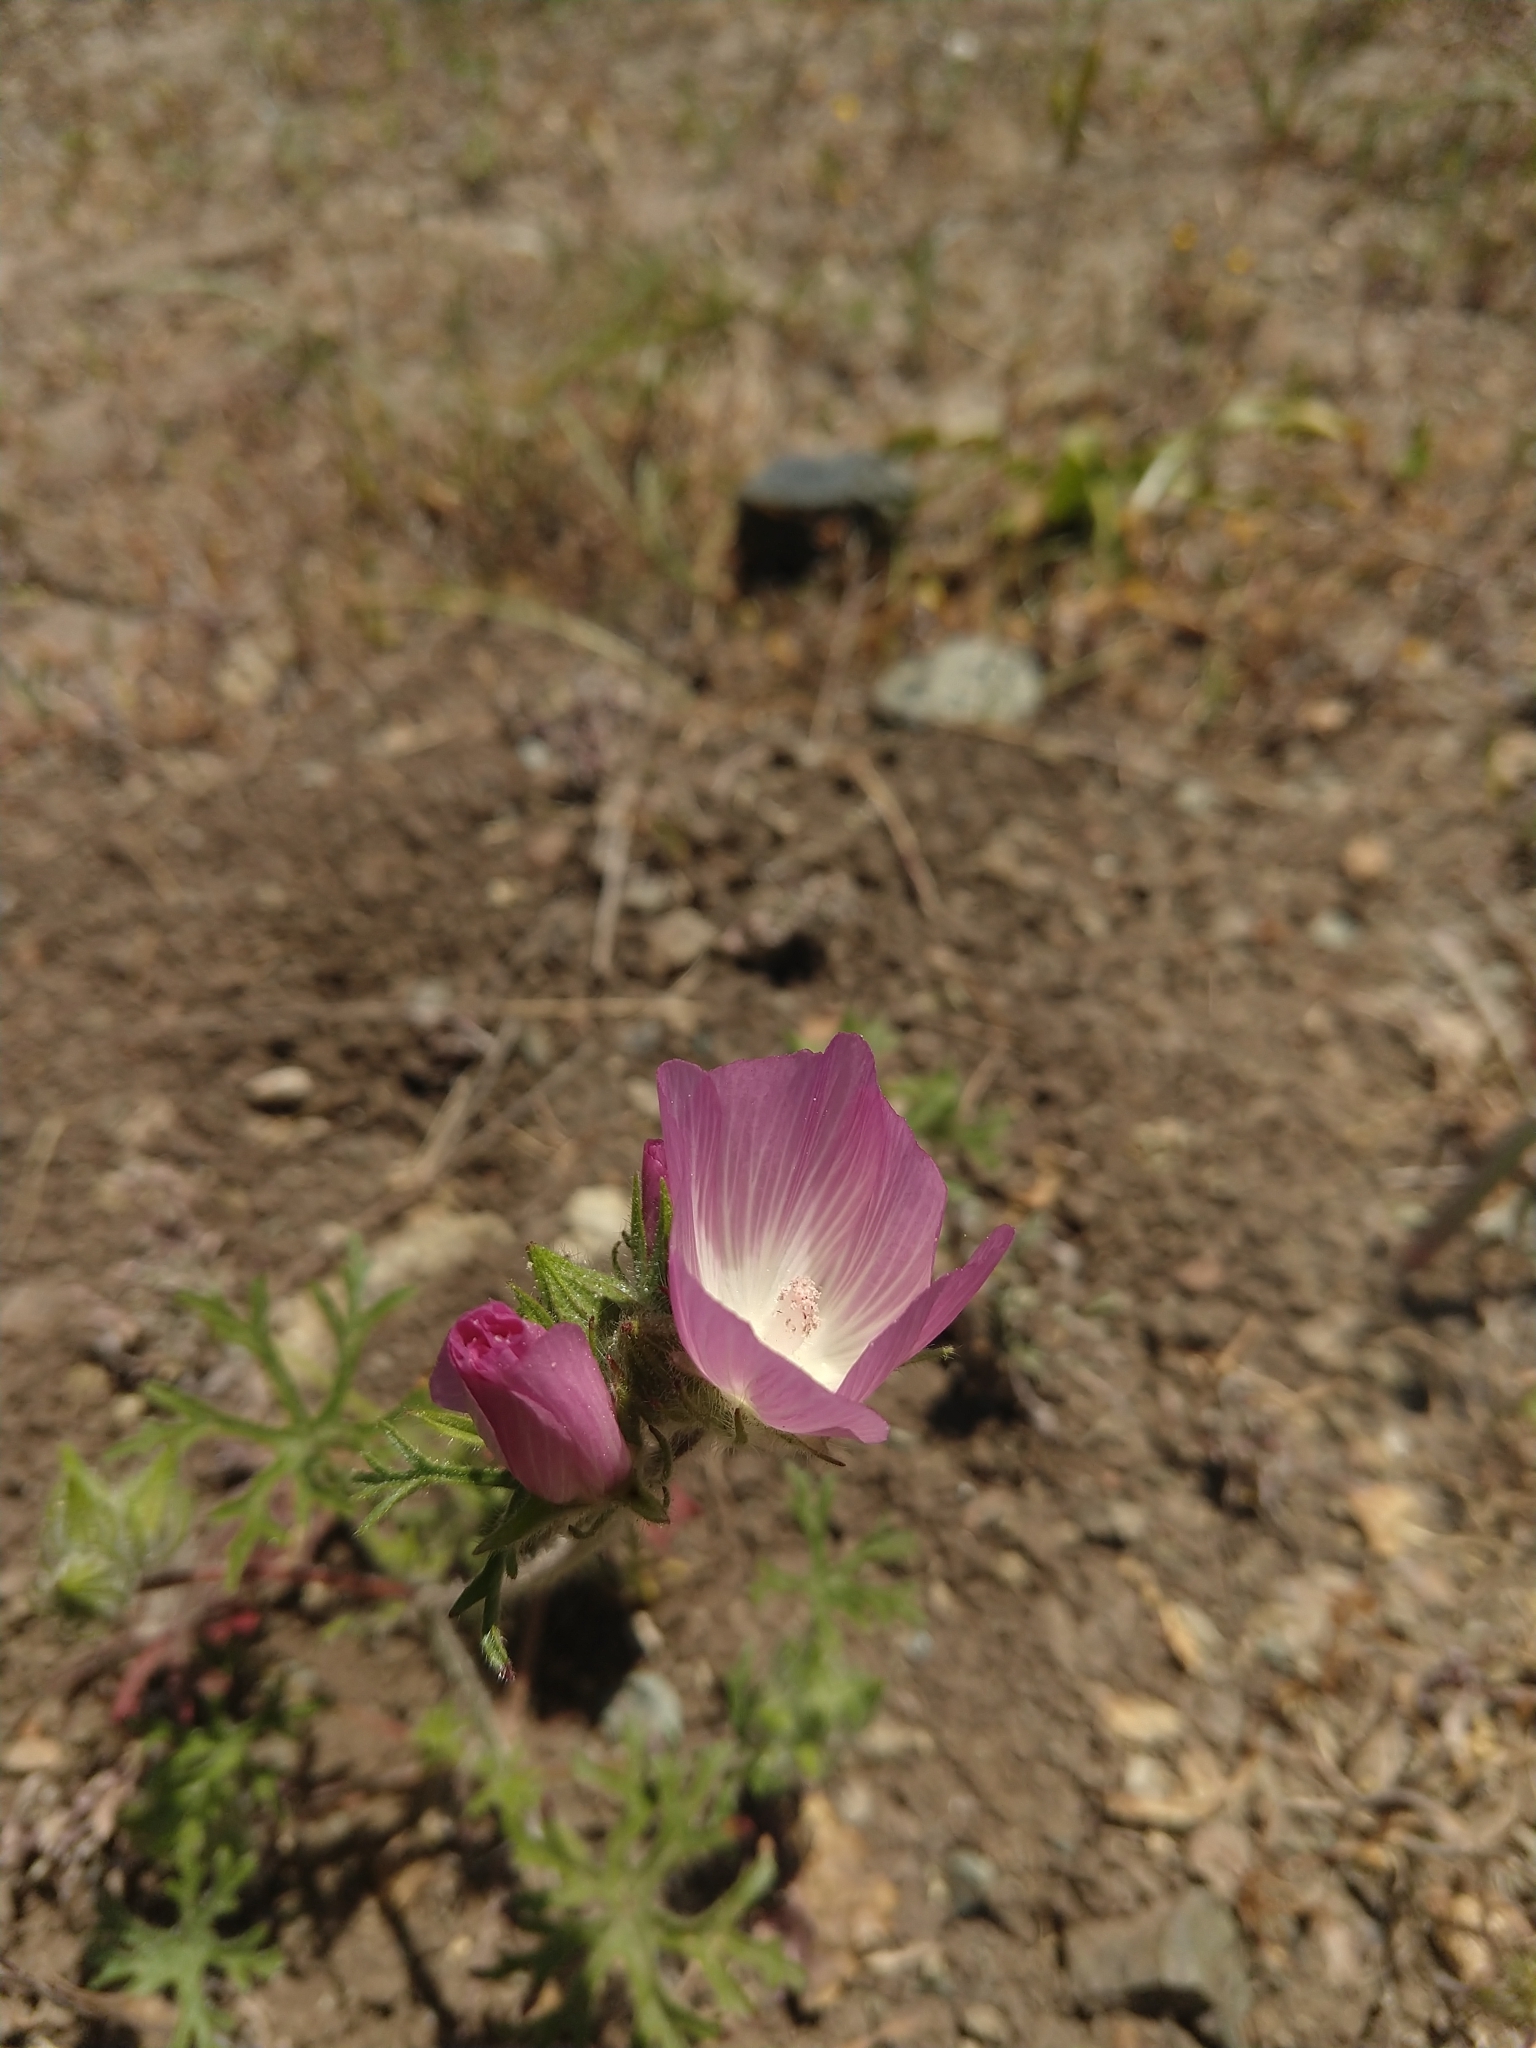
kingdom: Plantae
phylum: Tracheophyta
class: Magnoliopsida
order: Malvales
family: Malvaceae
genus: Sidalcea
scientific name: Sidalcea diploscypha
